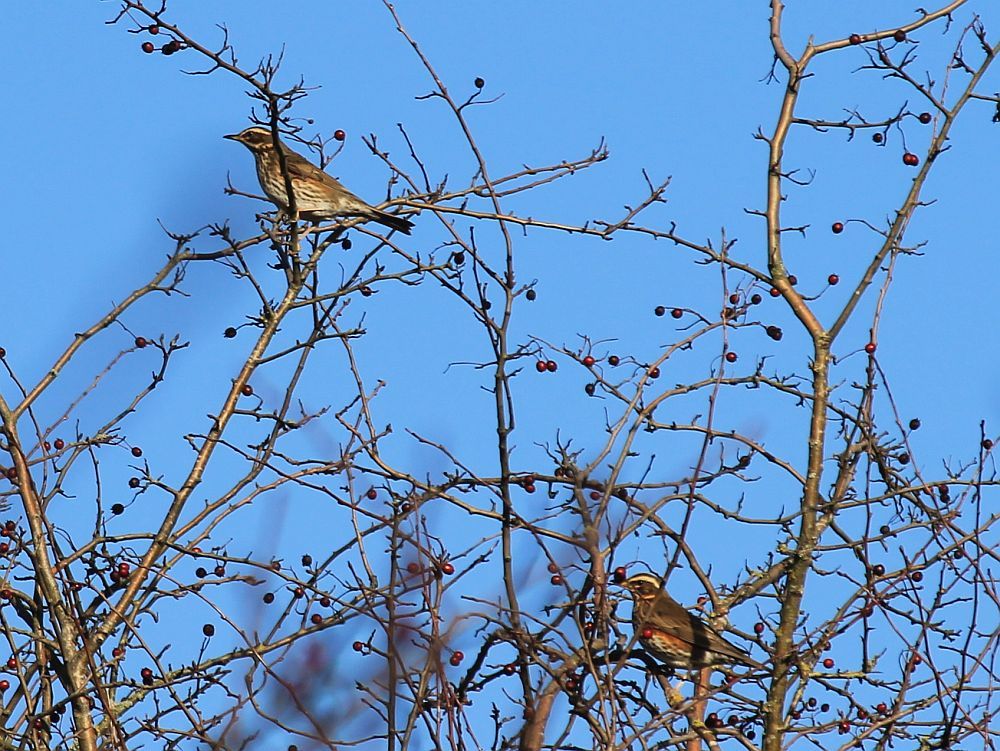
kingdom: Animalia
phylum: Chordata
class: Aves
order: Passeriformes
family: Turdidae
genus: Turdus
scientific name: Turdus iliacus
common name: Redwing
